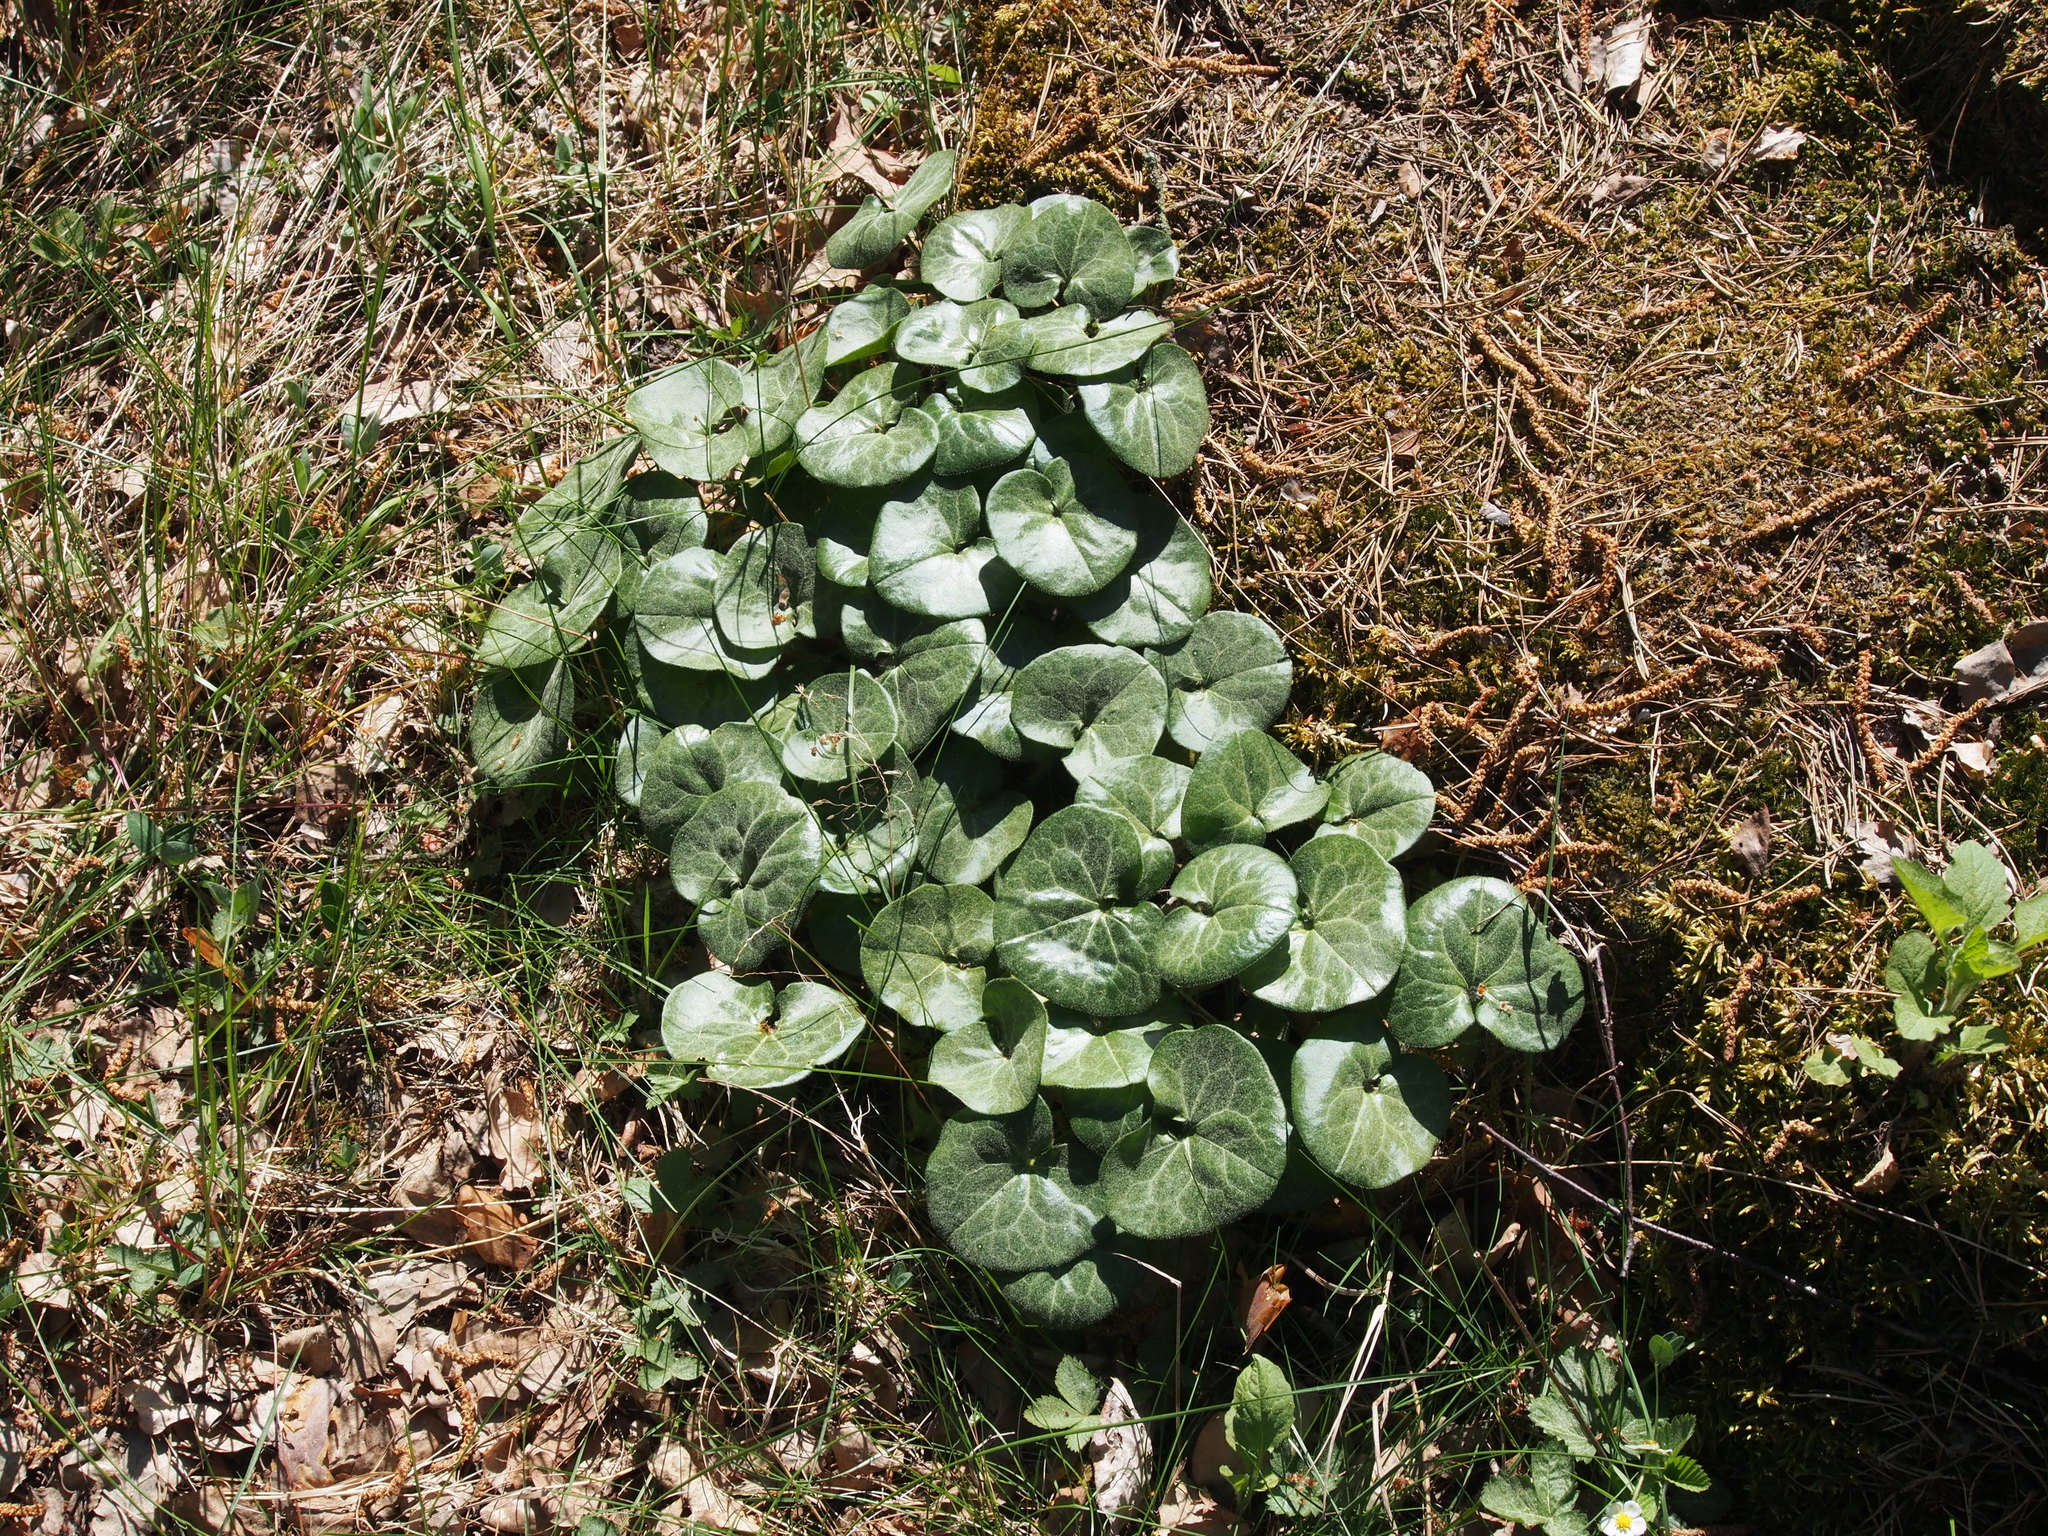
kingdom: Plantae
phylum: Tracheophyta
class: Magnoliopsida
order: Piperales
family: Aristolochiaceae
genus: Asarum
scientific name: Asarum europaeum
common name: Asarabacca
